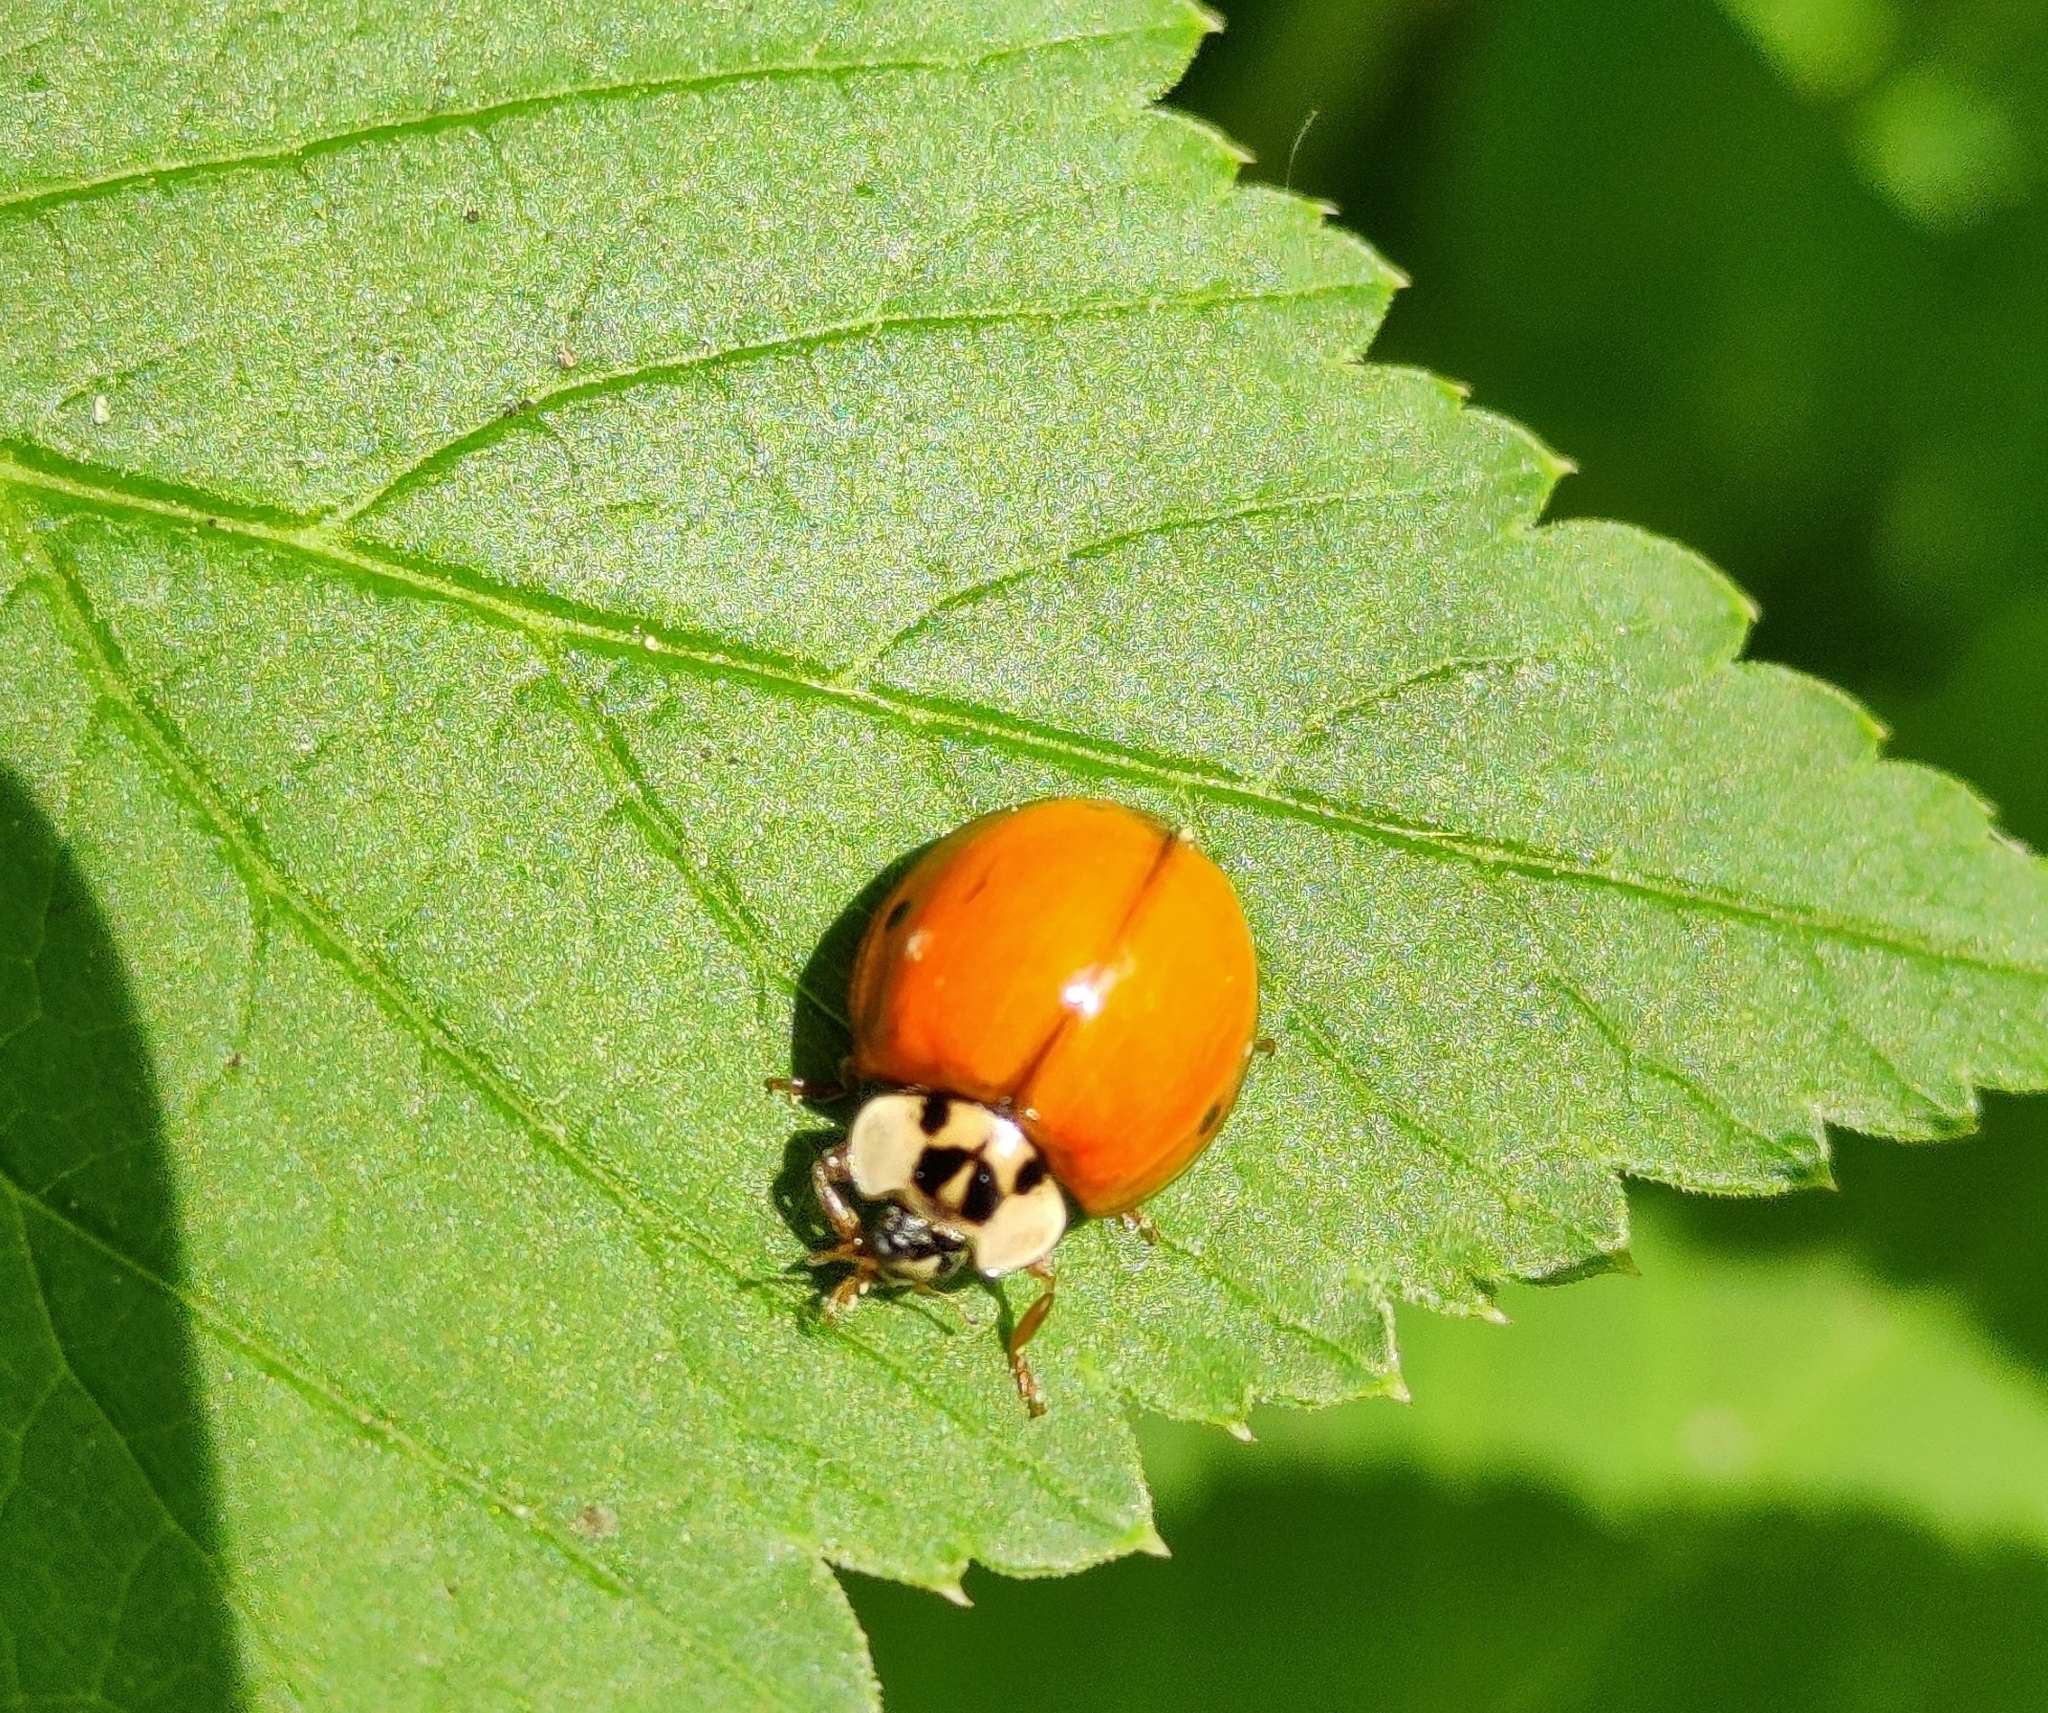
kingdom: Animalia
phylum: Arthropoda
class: Insecta
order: Coleoptera
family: Coccinellidae
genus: Harmonia
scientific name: Harmonia axyridis
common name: Harlequin ladybird
